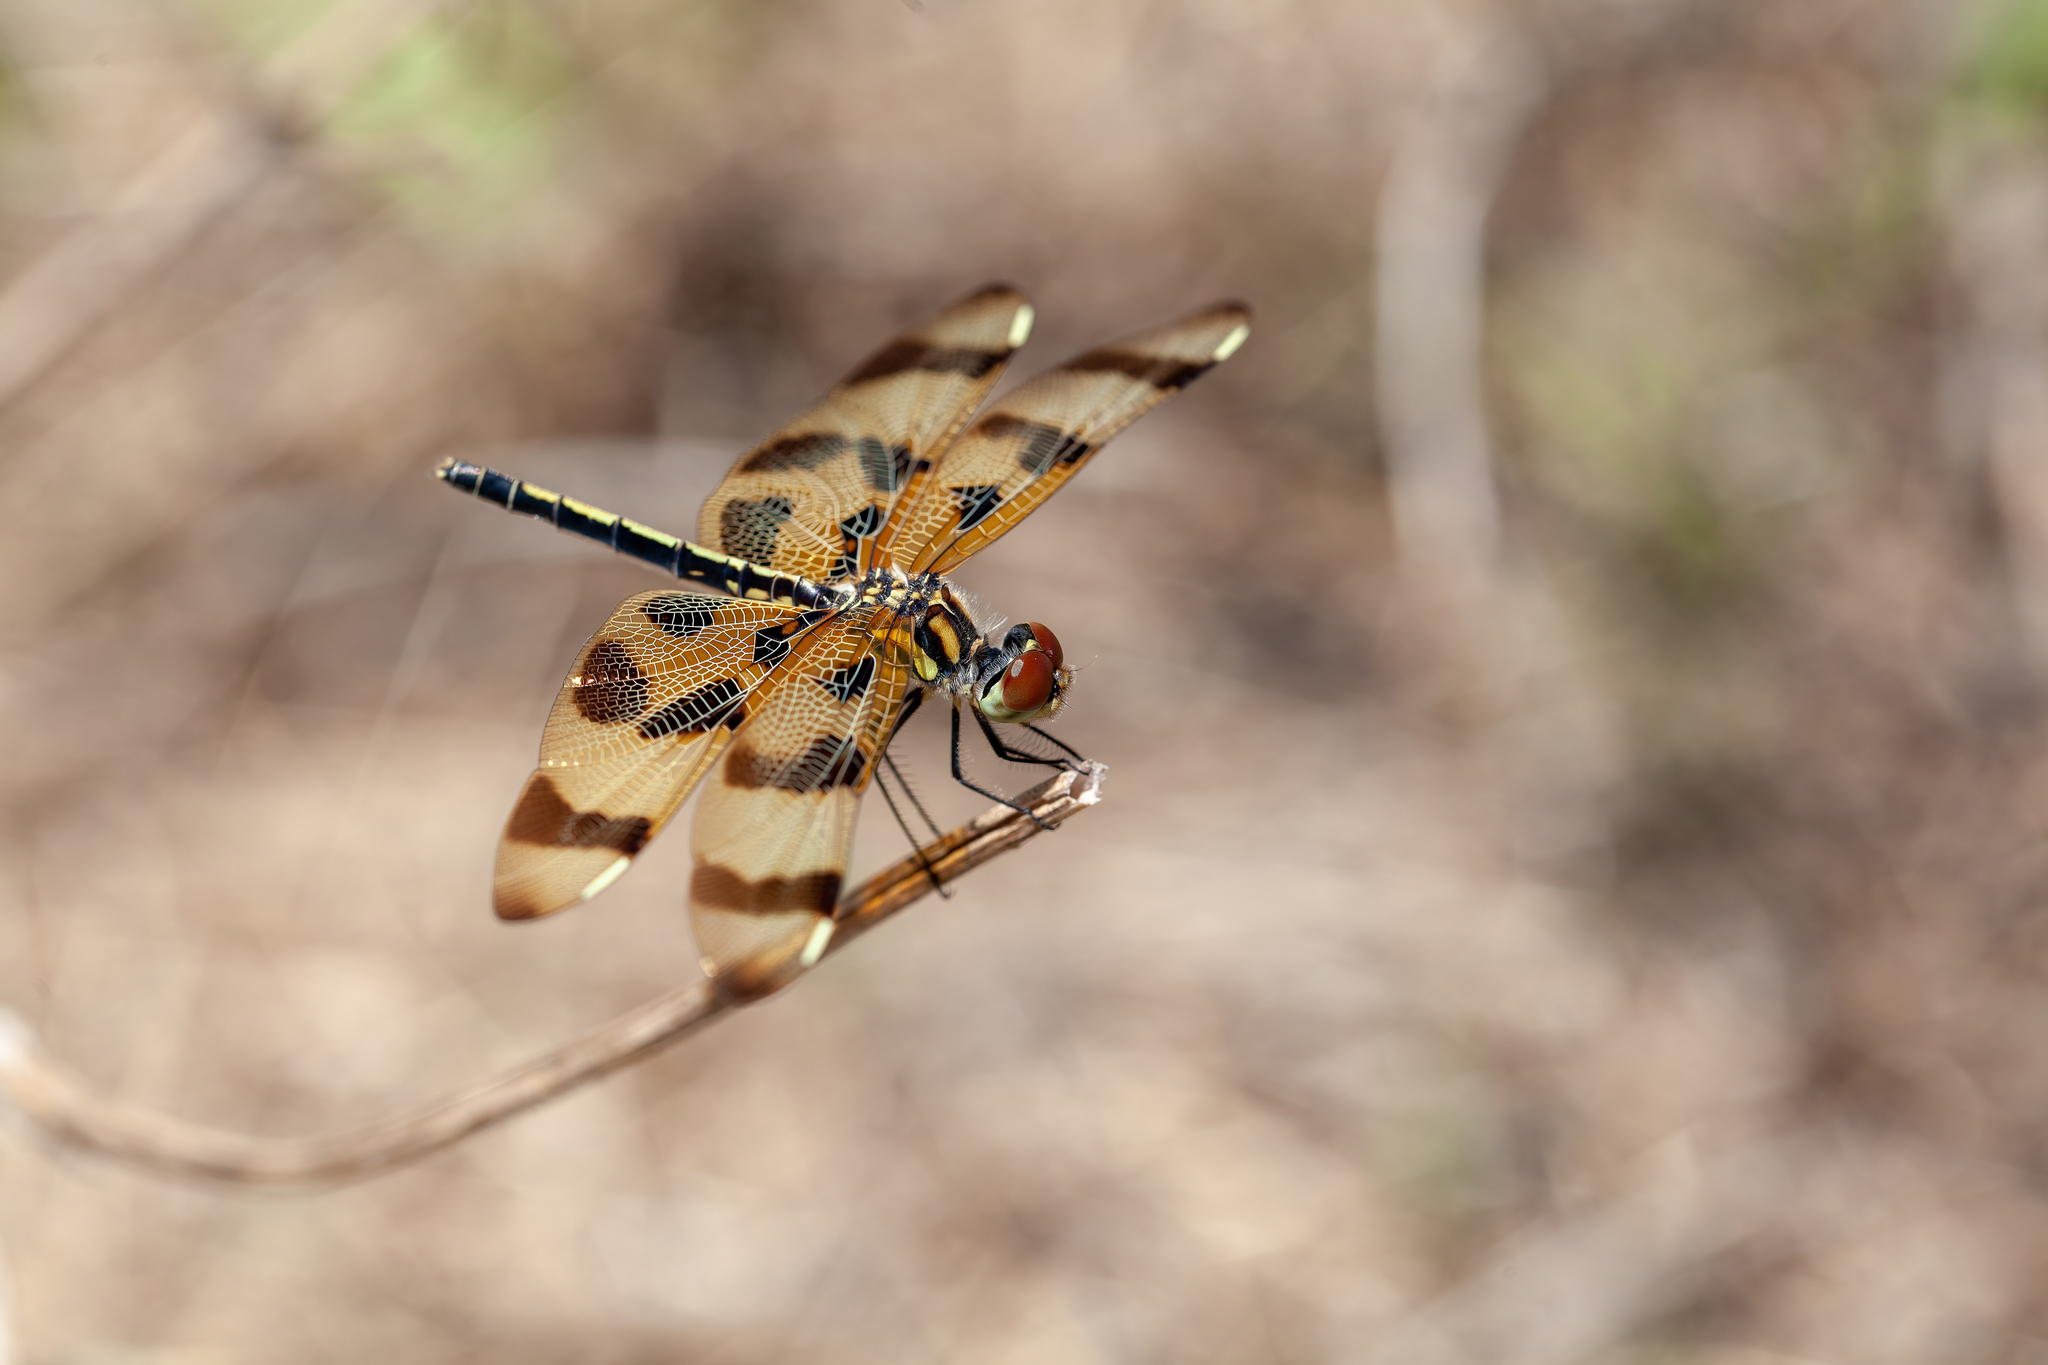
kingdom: Animalia
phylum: Arthropoda
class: Insecta
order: Odonata
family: Libellulidae
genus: Celithemis
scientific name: Celithemis eponina
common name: Halloween pennant
